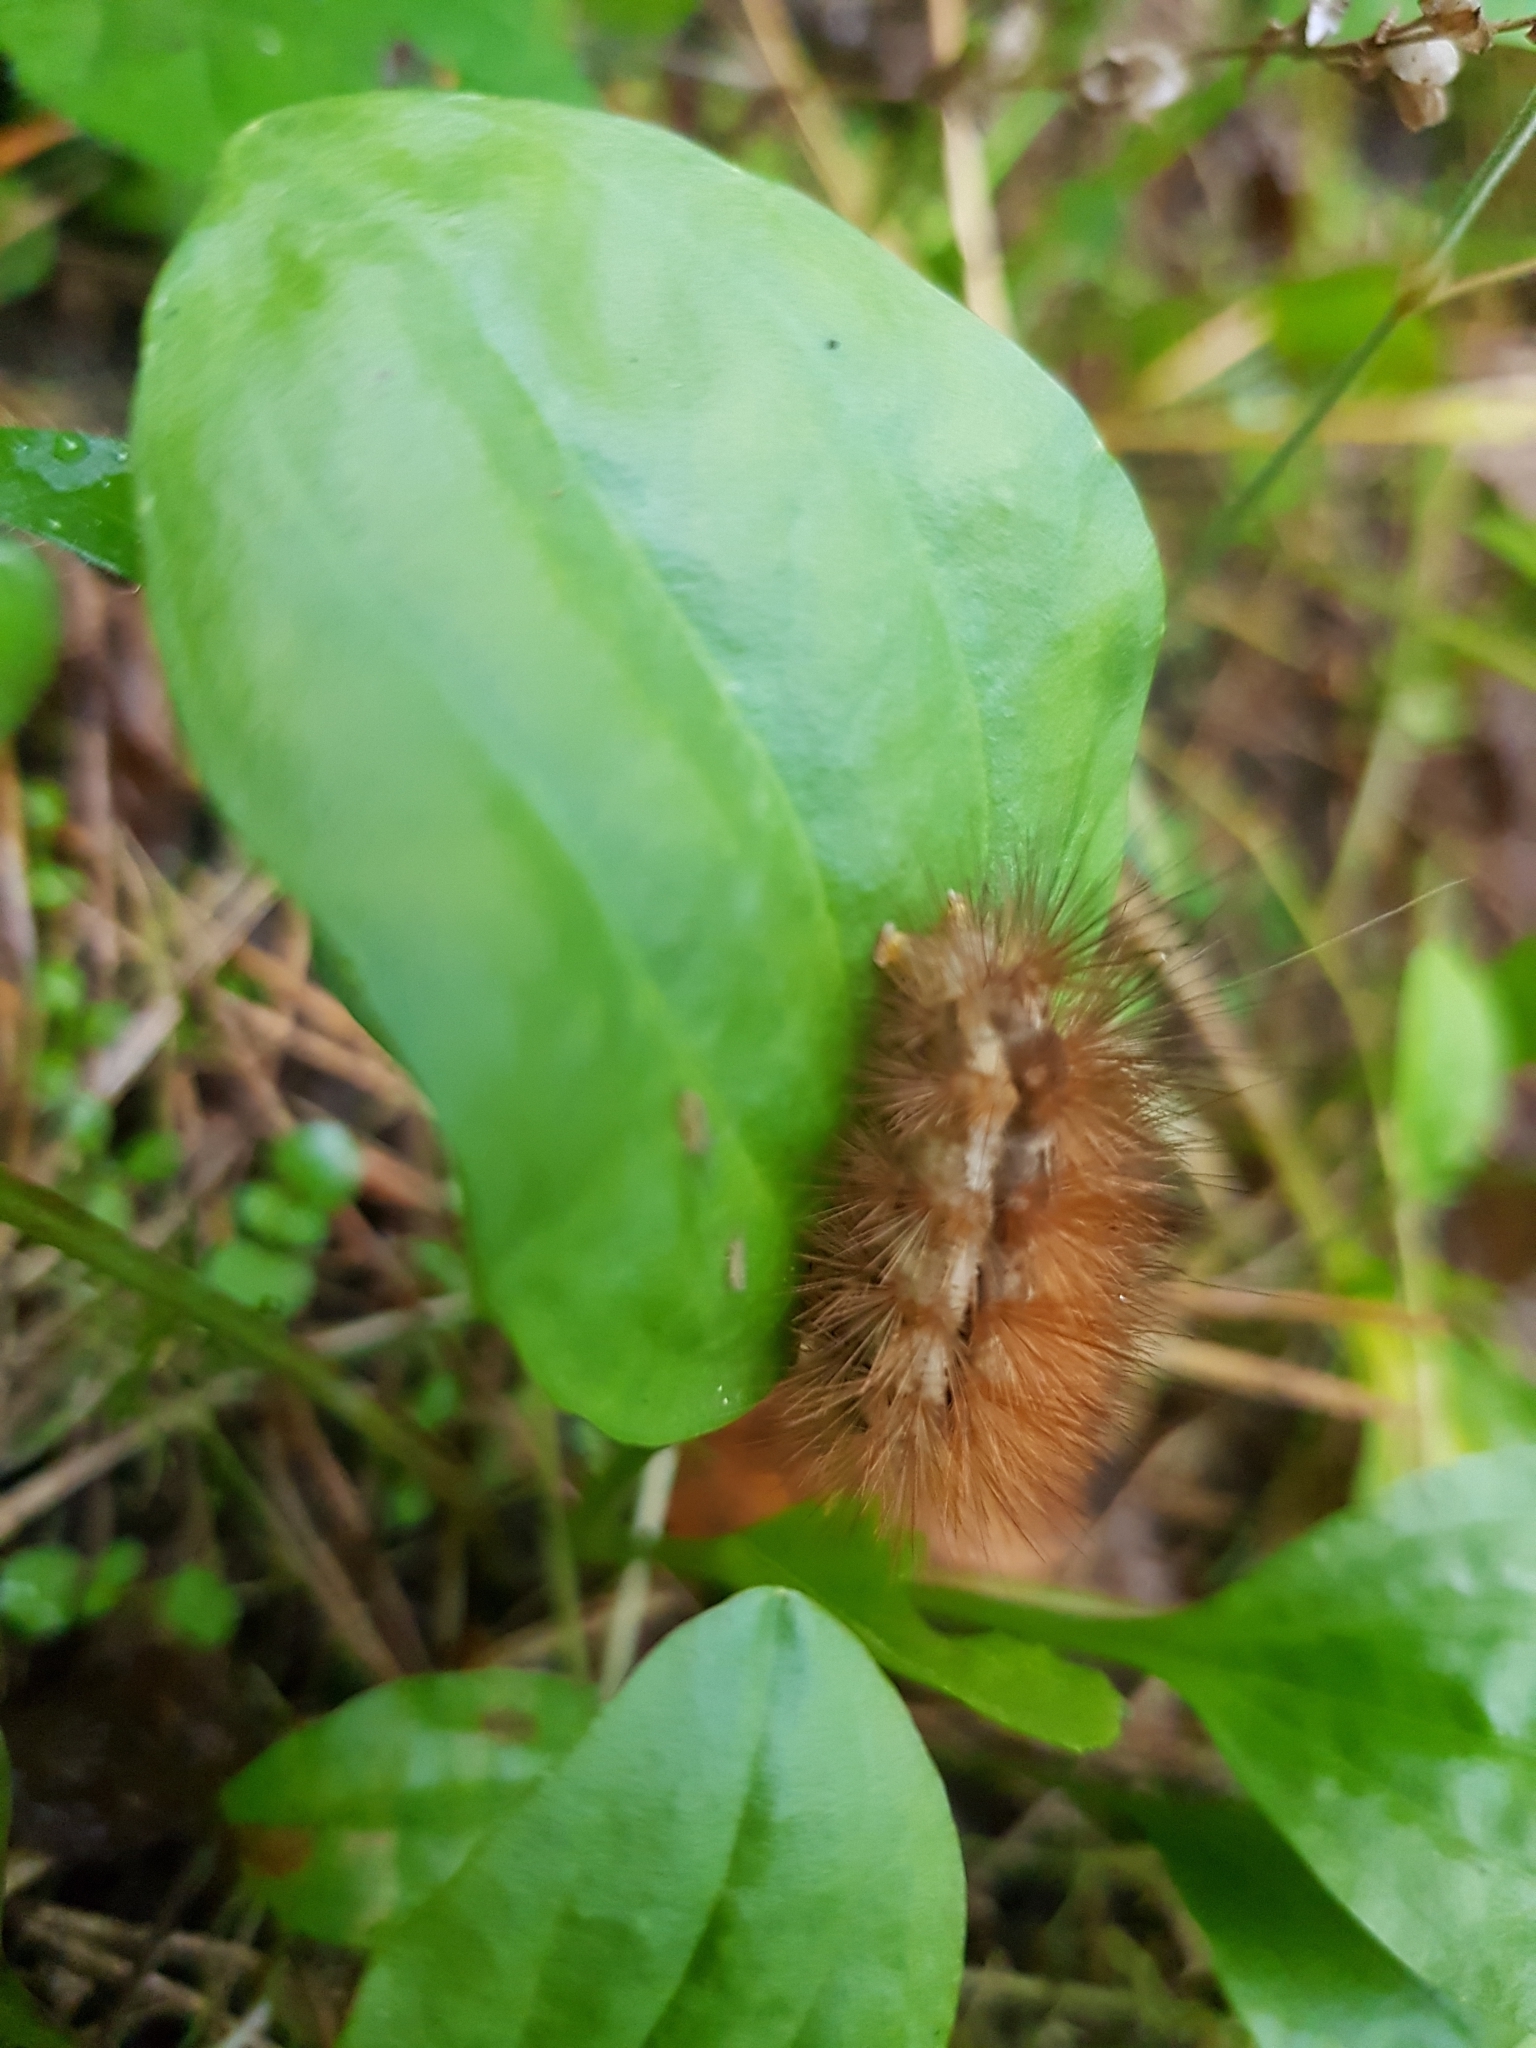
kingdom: Animalia
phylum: Arthropoda
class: Insecta
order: Lepidoptera
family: Erebidae
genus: Spilarctia
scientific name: Spilarctia lutea
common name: Buff ermine
